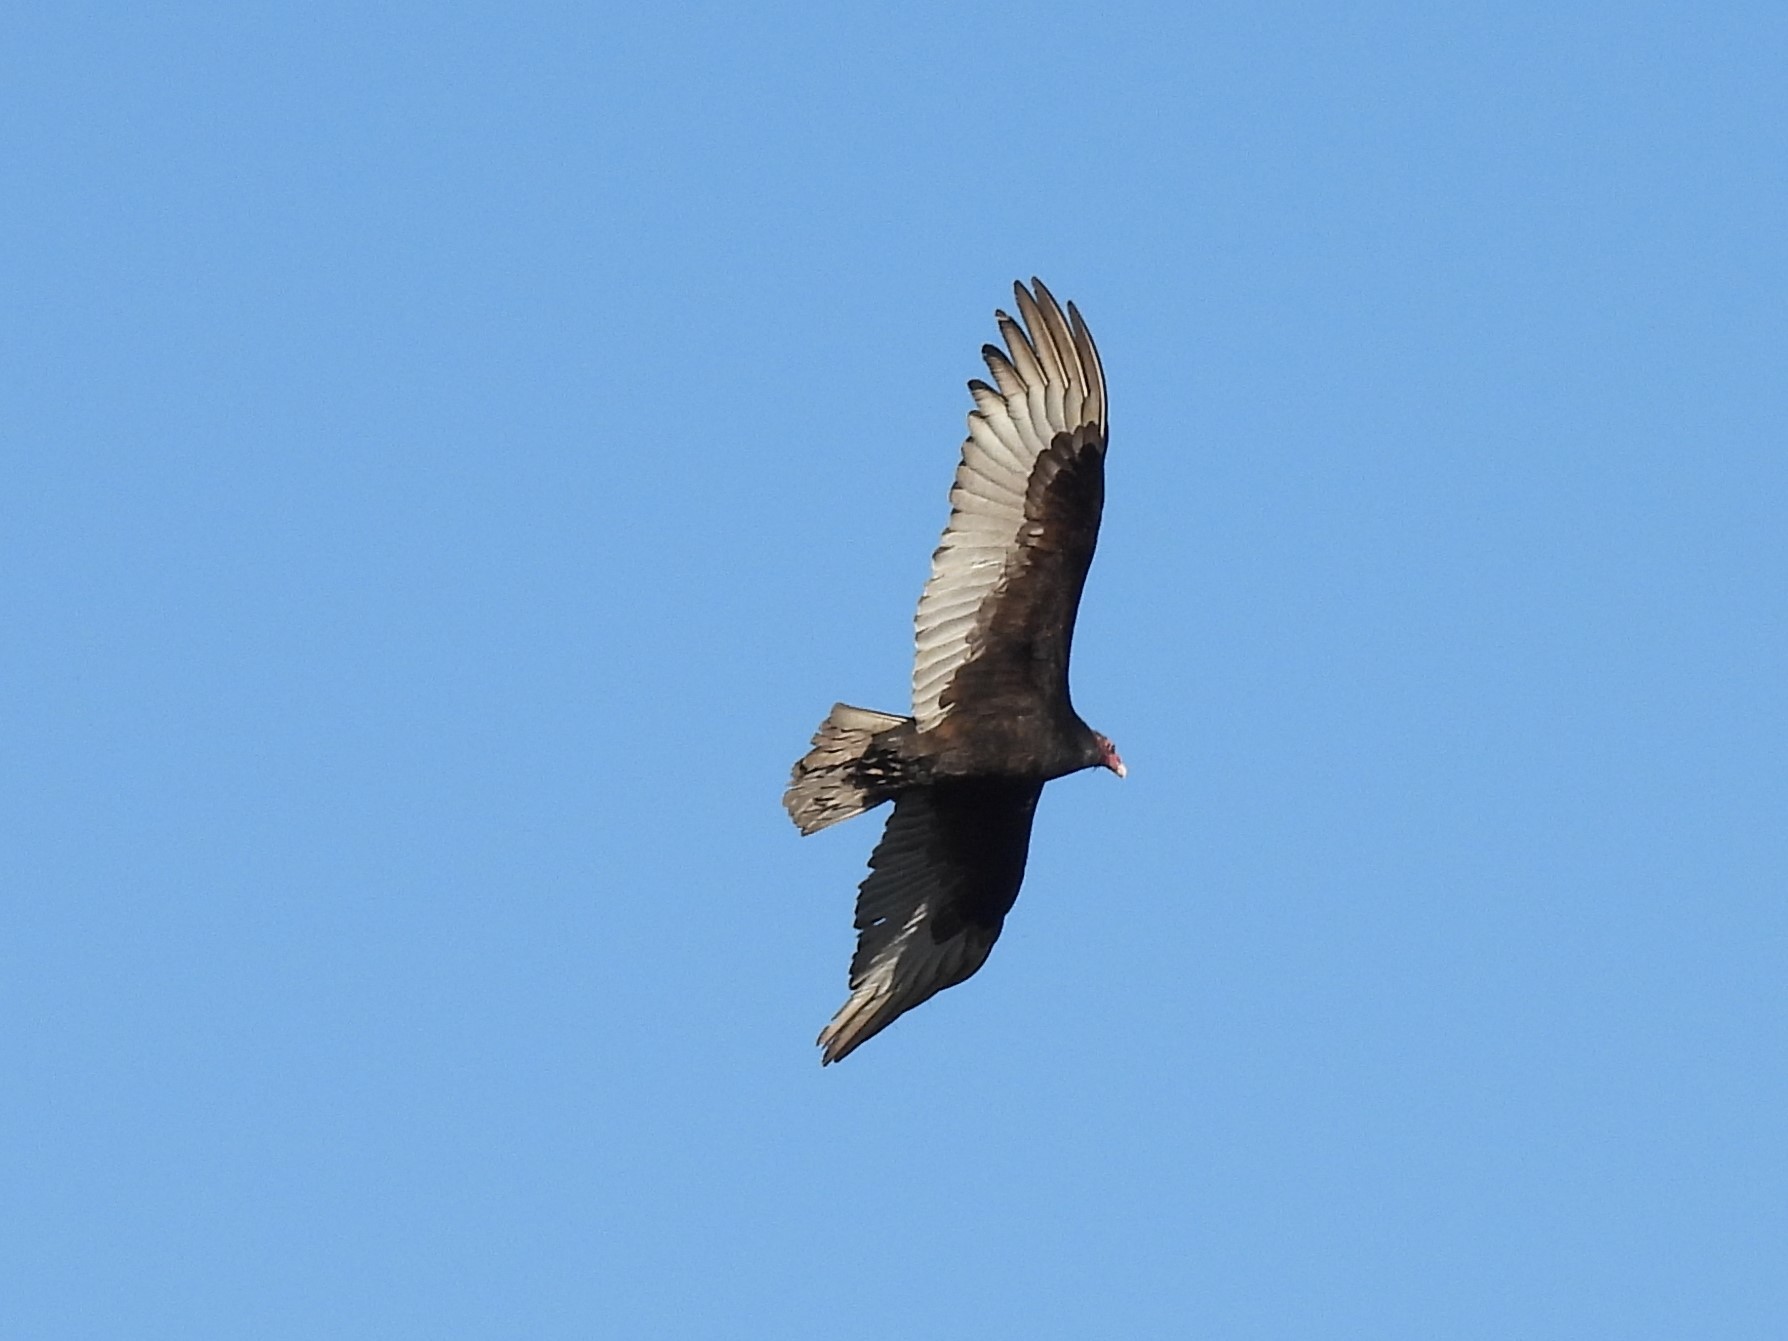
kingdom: Animalia
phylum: Chordata
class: Aves
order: Accipitriformes
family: Cathartidae
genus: Cathartes
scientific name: Cathartes aura
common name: Turkey vulture
